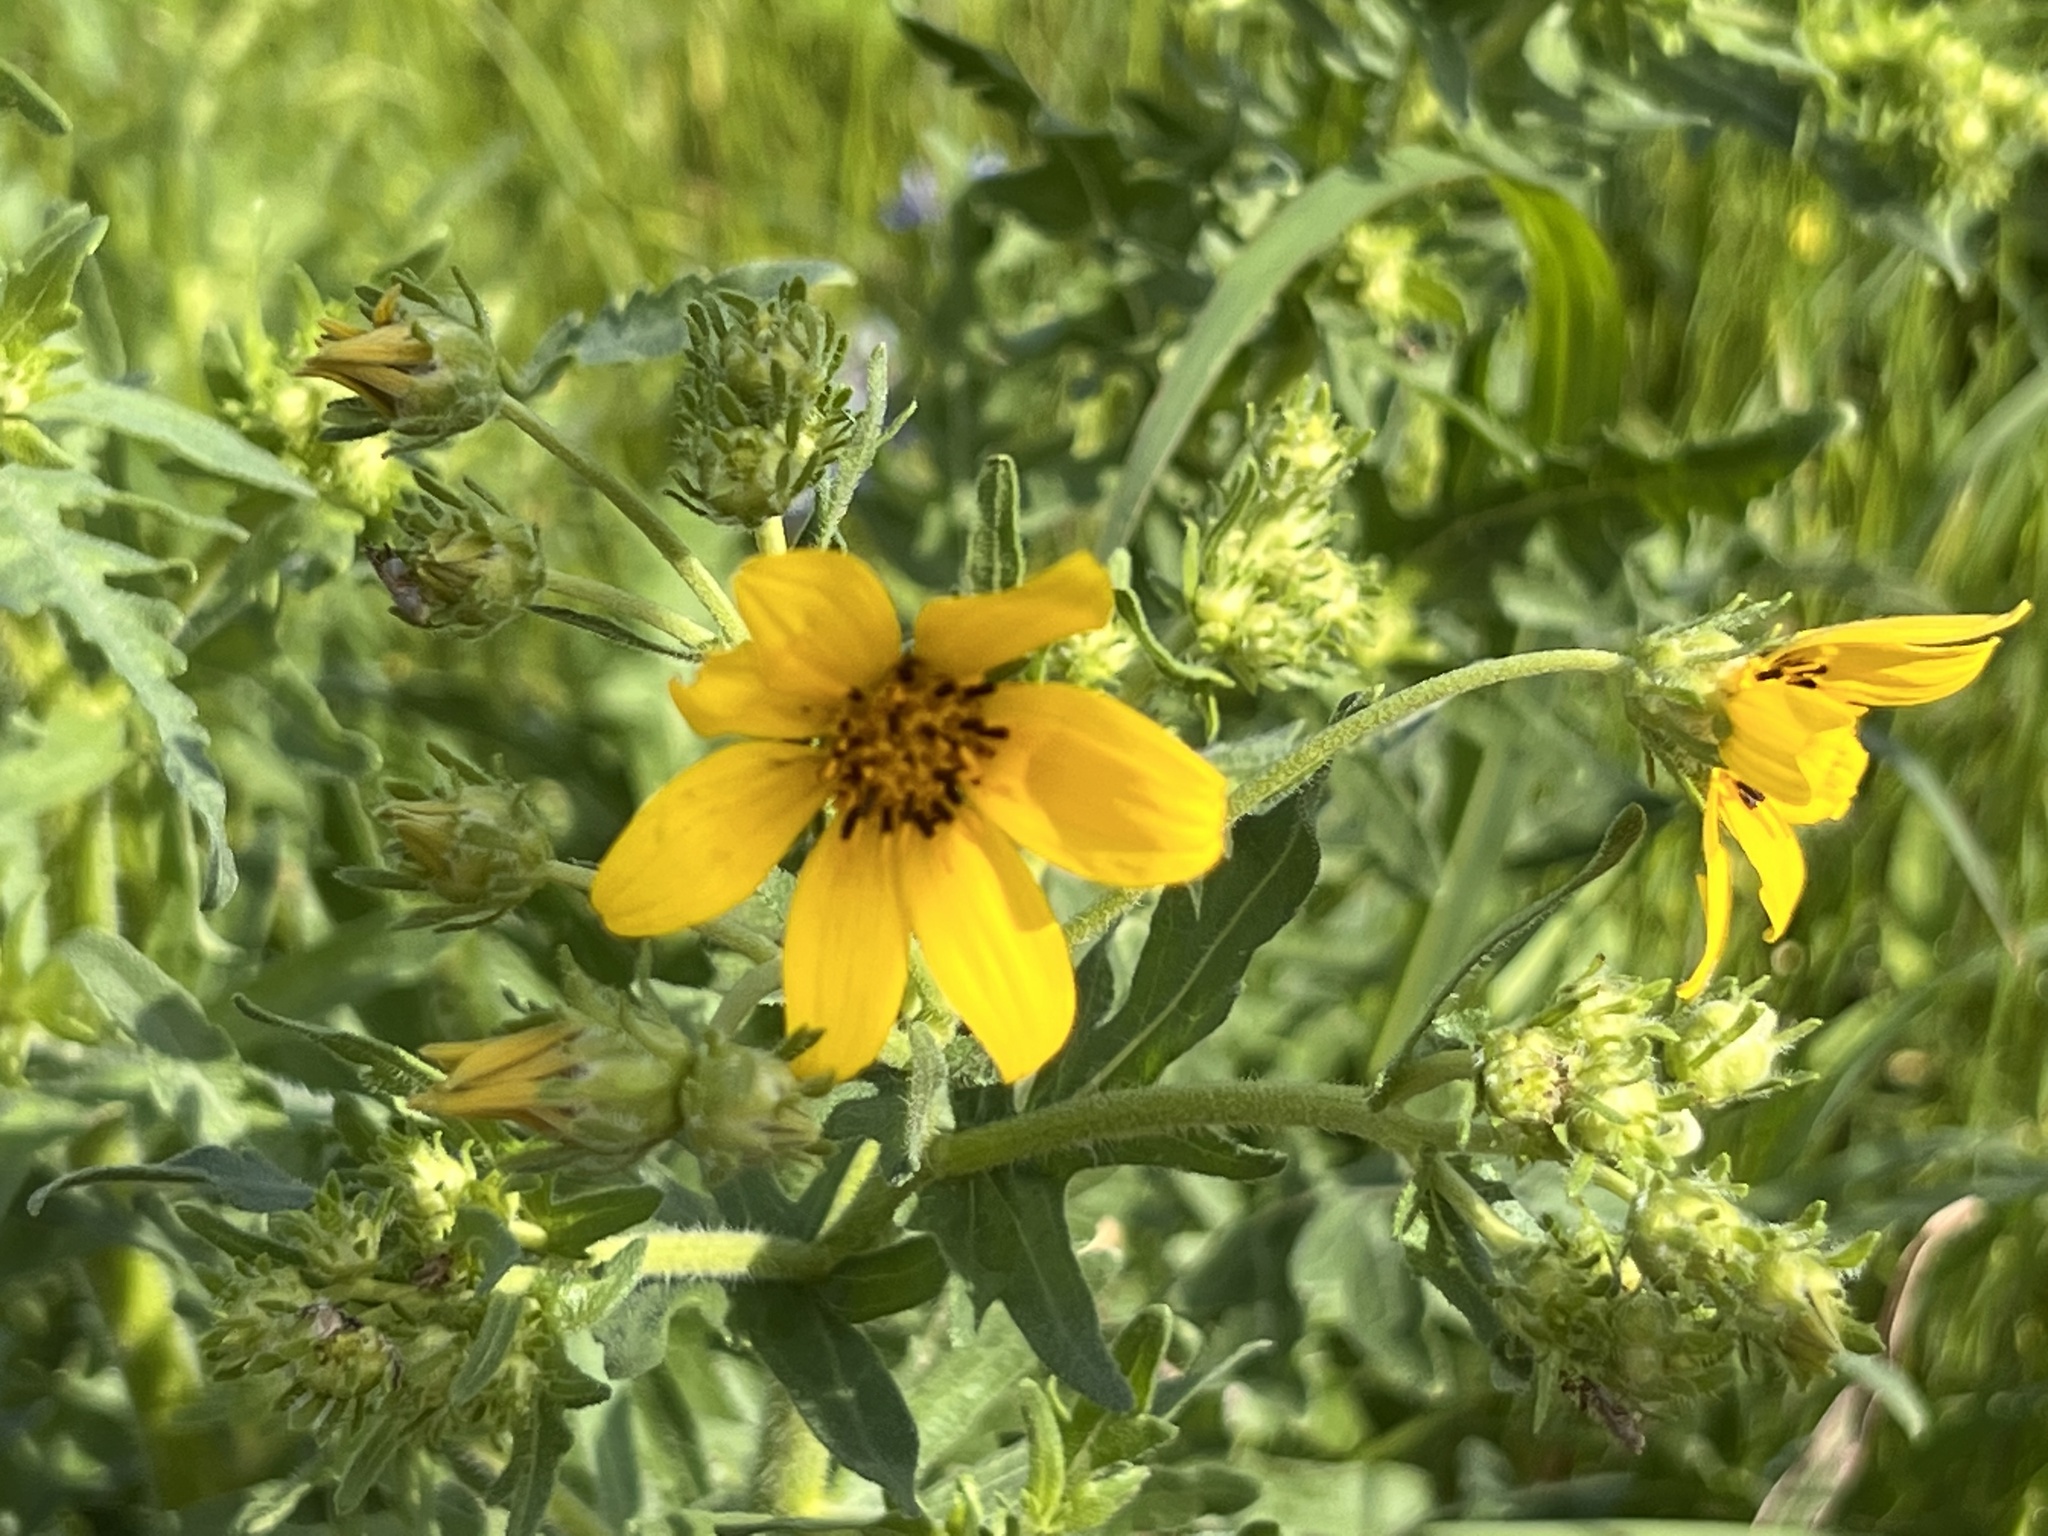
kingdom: Plantae
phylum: Tracheophyta
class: Magnoliopsida
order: Asterales
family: Asteraceae
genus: Engelmannia
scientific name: Engelmannia peristenia
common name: Engelmann's daisy
